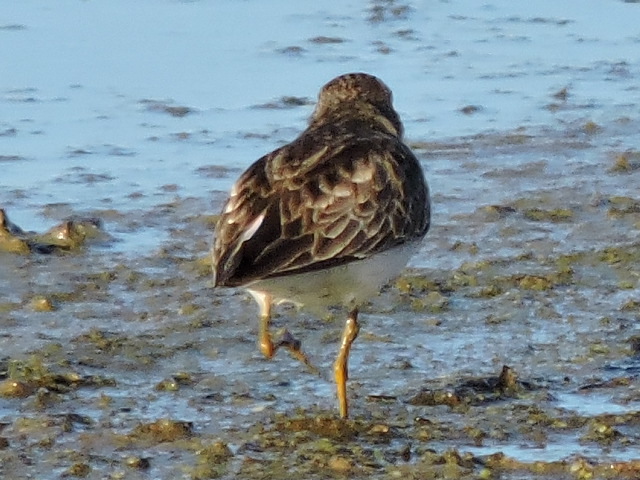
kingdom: Animalia
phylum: Chordata
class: Aves
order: Charadriiformes
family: Scolopacidae
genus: Calidris
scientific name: Calidris minutilla
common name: Least sandpiper
